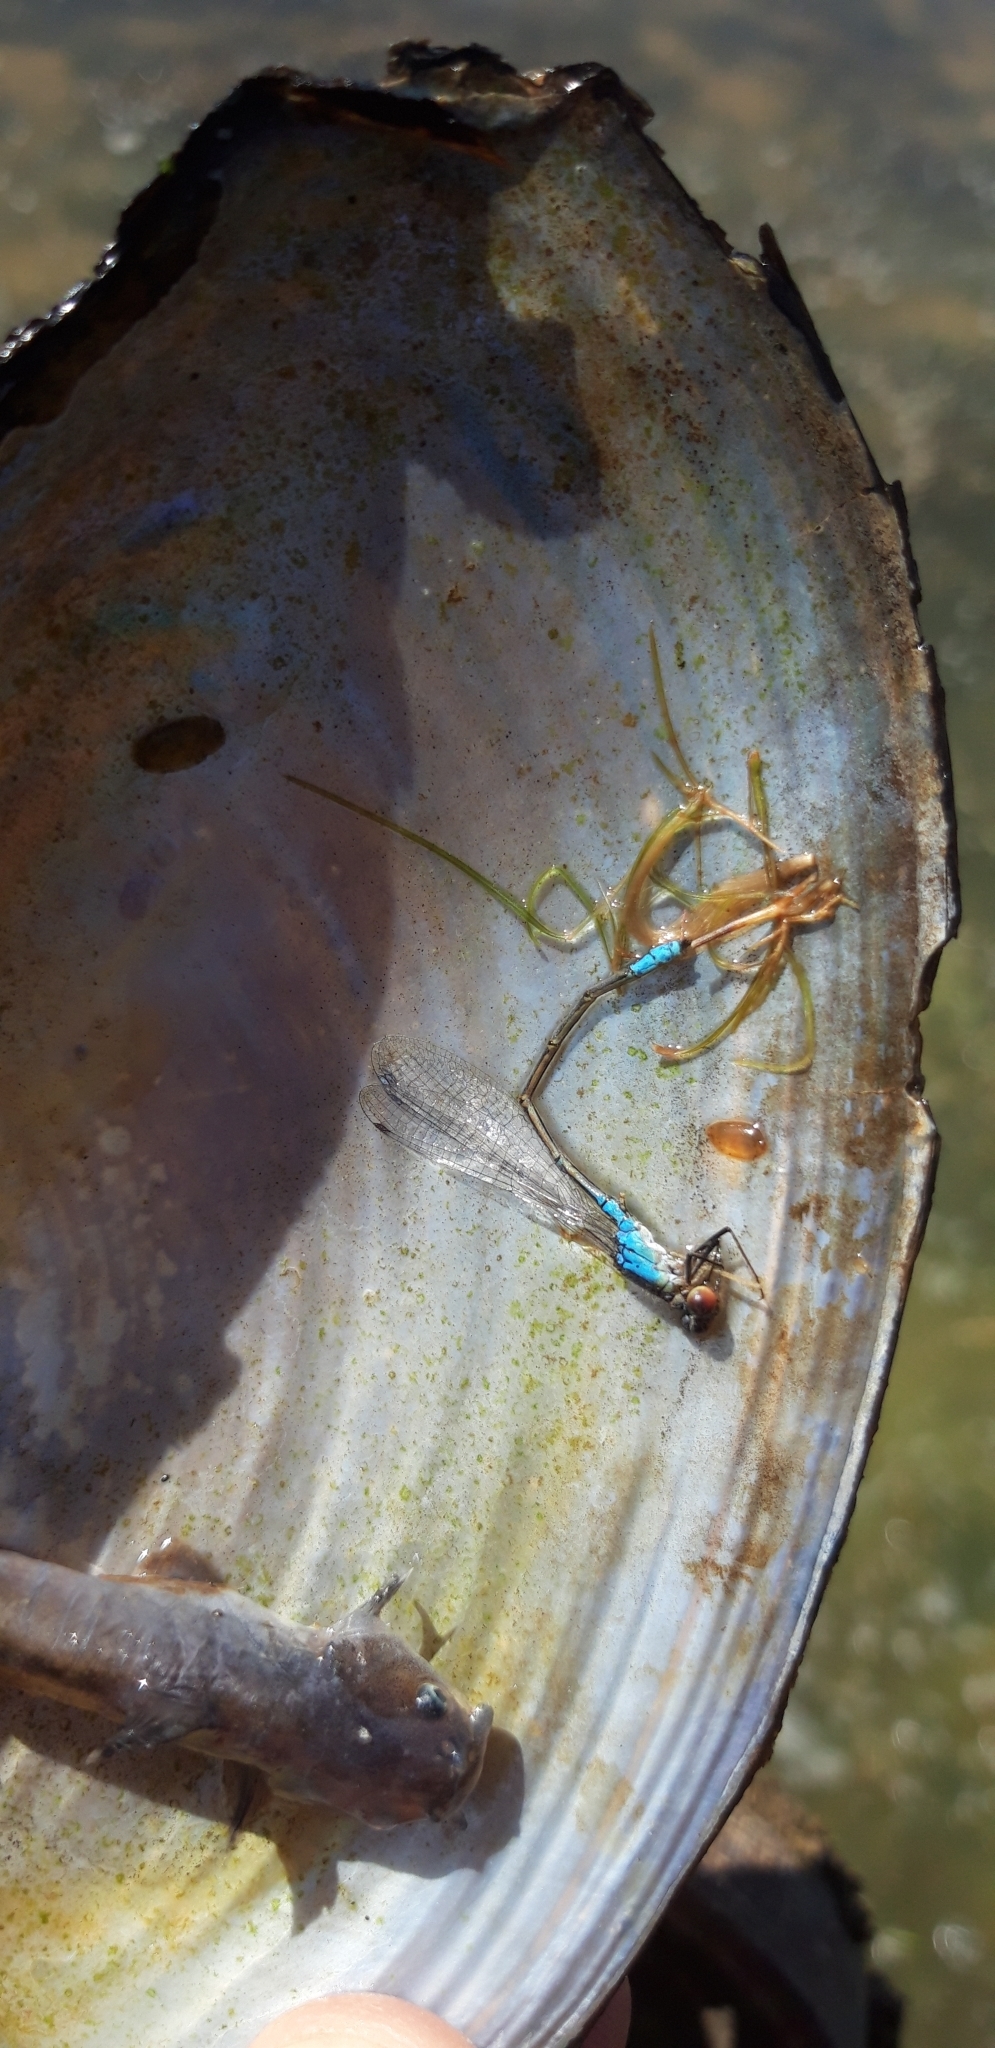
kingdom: Animalia
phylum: Arthropoda
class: Insecta
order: Odonata
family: Coenagrionidae
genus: Erythromma
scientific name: Erythromma viridulum
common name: Small red-eyed damselfly
